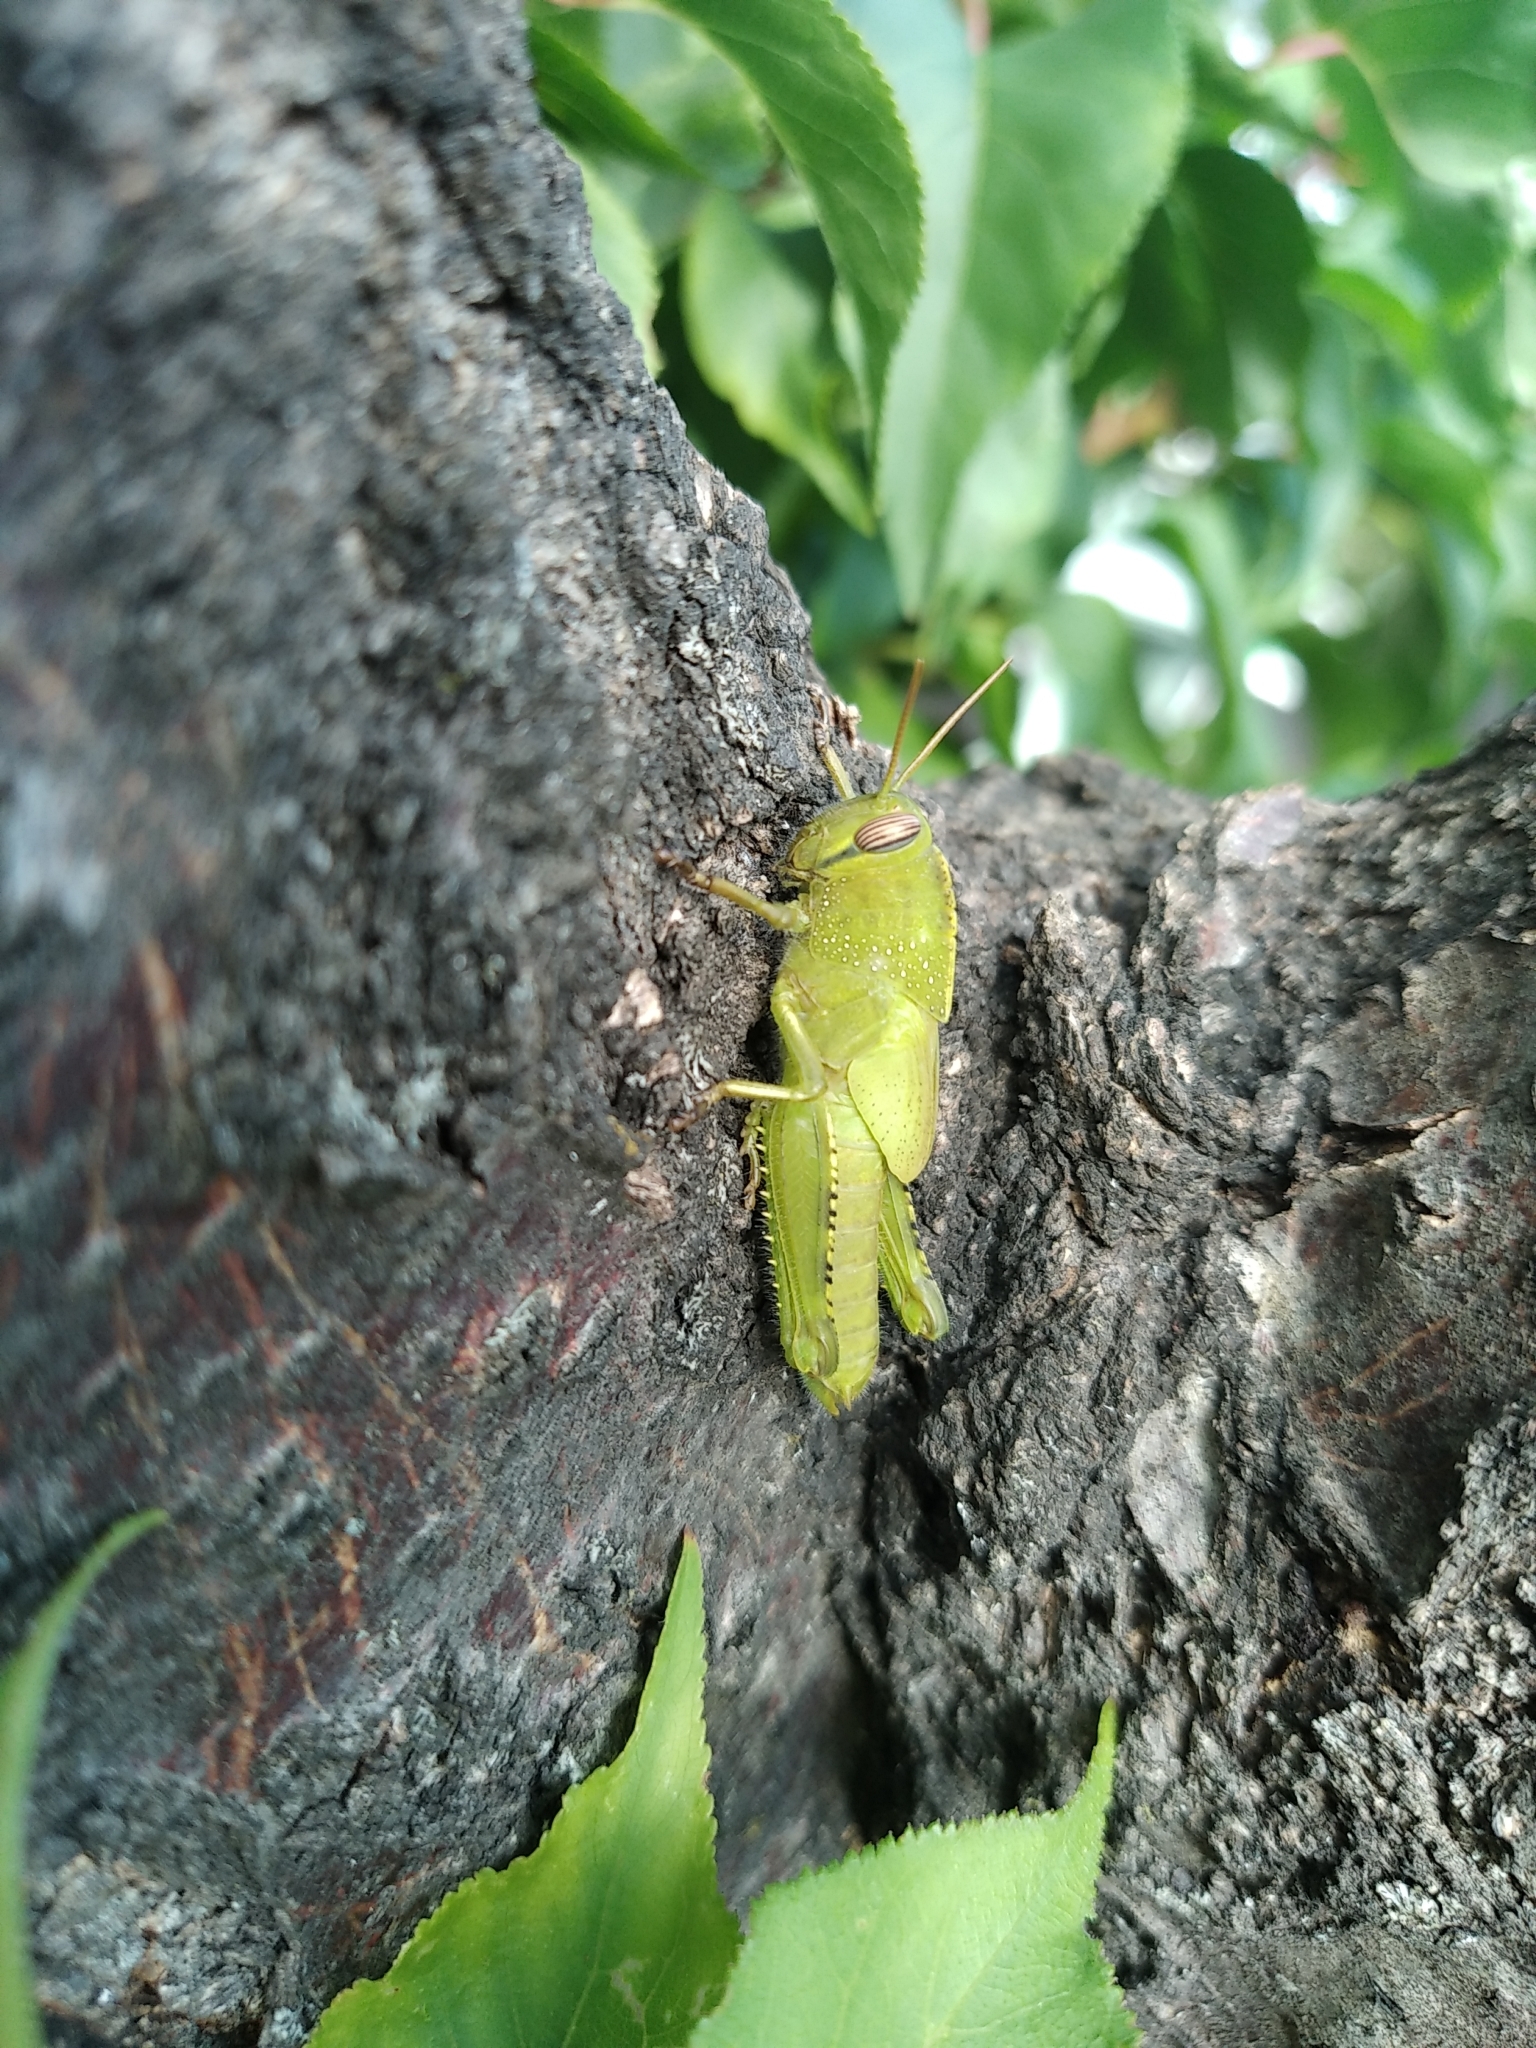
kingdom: Animalia
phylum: Arthropoda
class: Insecta
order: Orthoptera
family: Acrididae
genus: Anacridium
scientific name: Anacridium aegyptium
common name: Egyptian grasshopper
